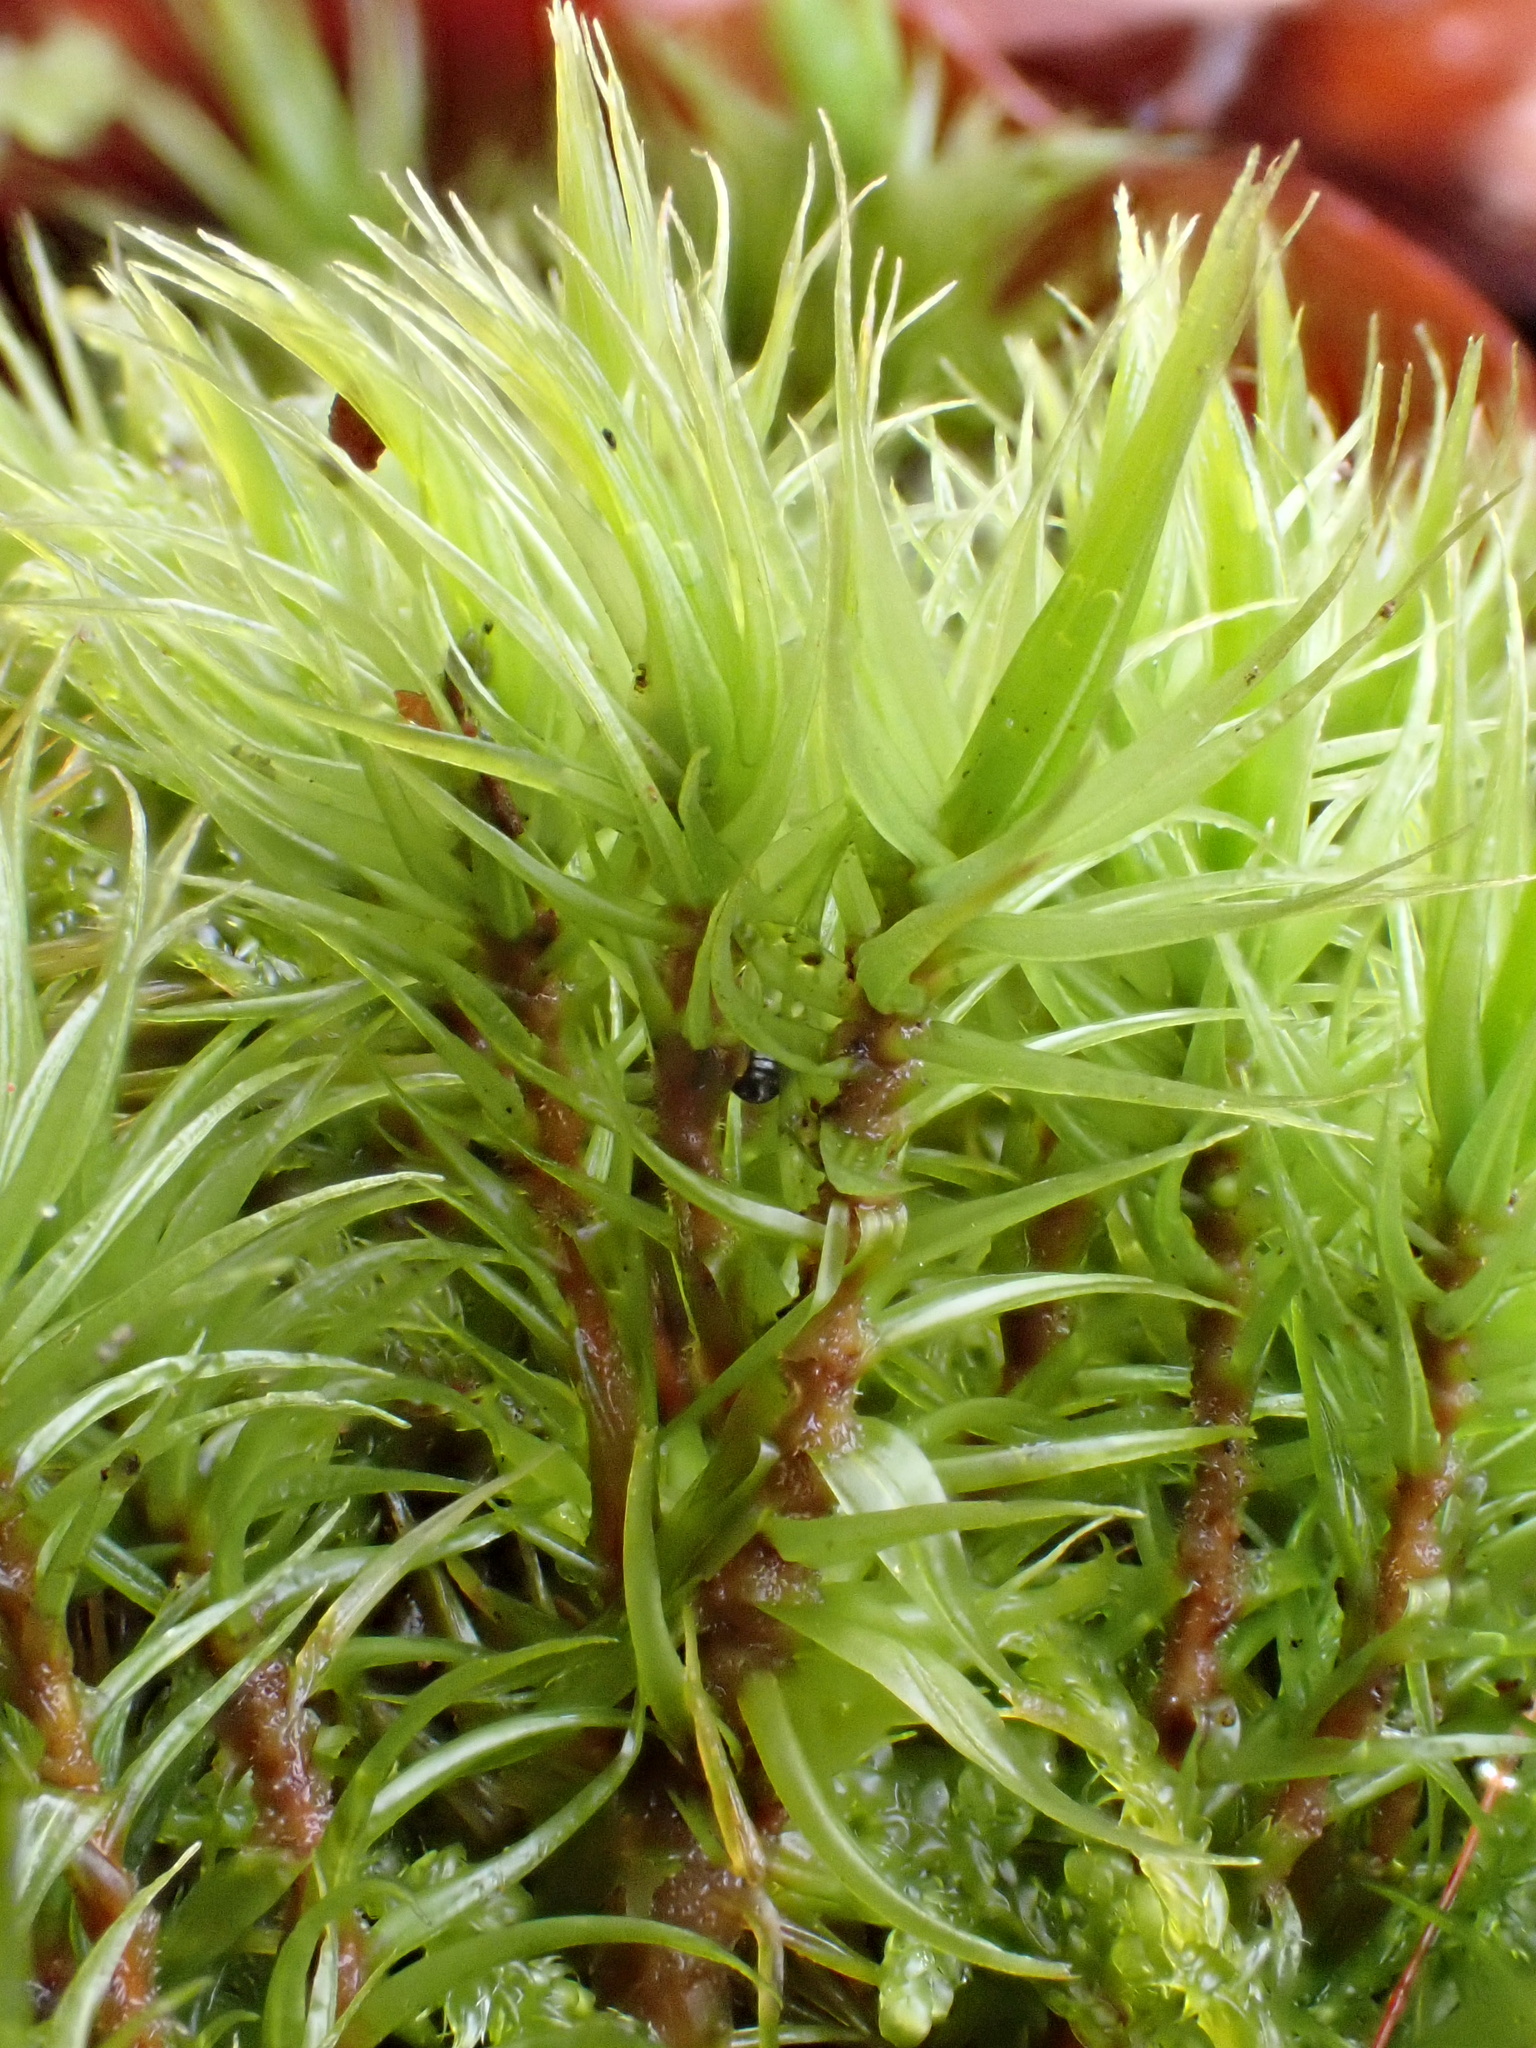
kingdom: Plantae
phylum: Bryophyta
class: Bryopsida
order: Dicranales
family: Dicranaceae
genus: Dicranum
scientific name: Dicranum polysetum
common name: Rugose fork-moss
